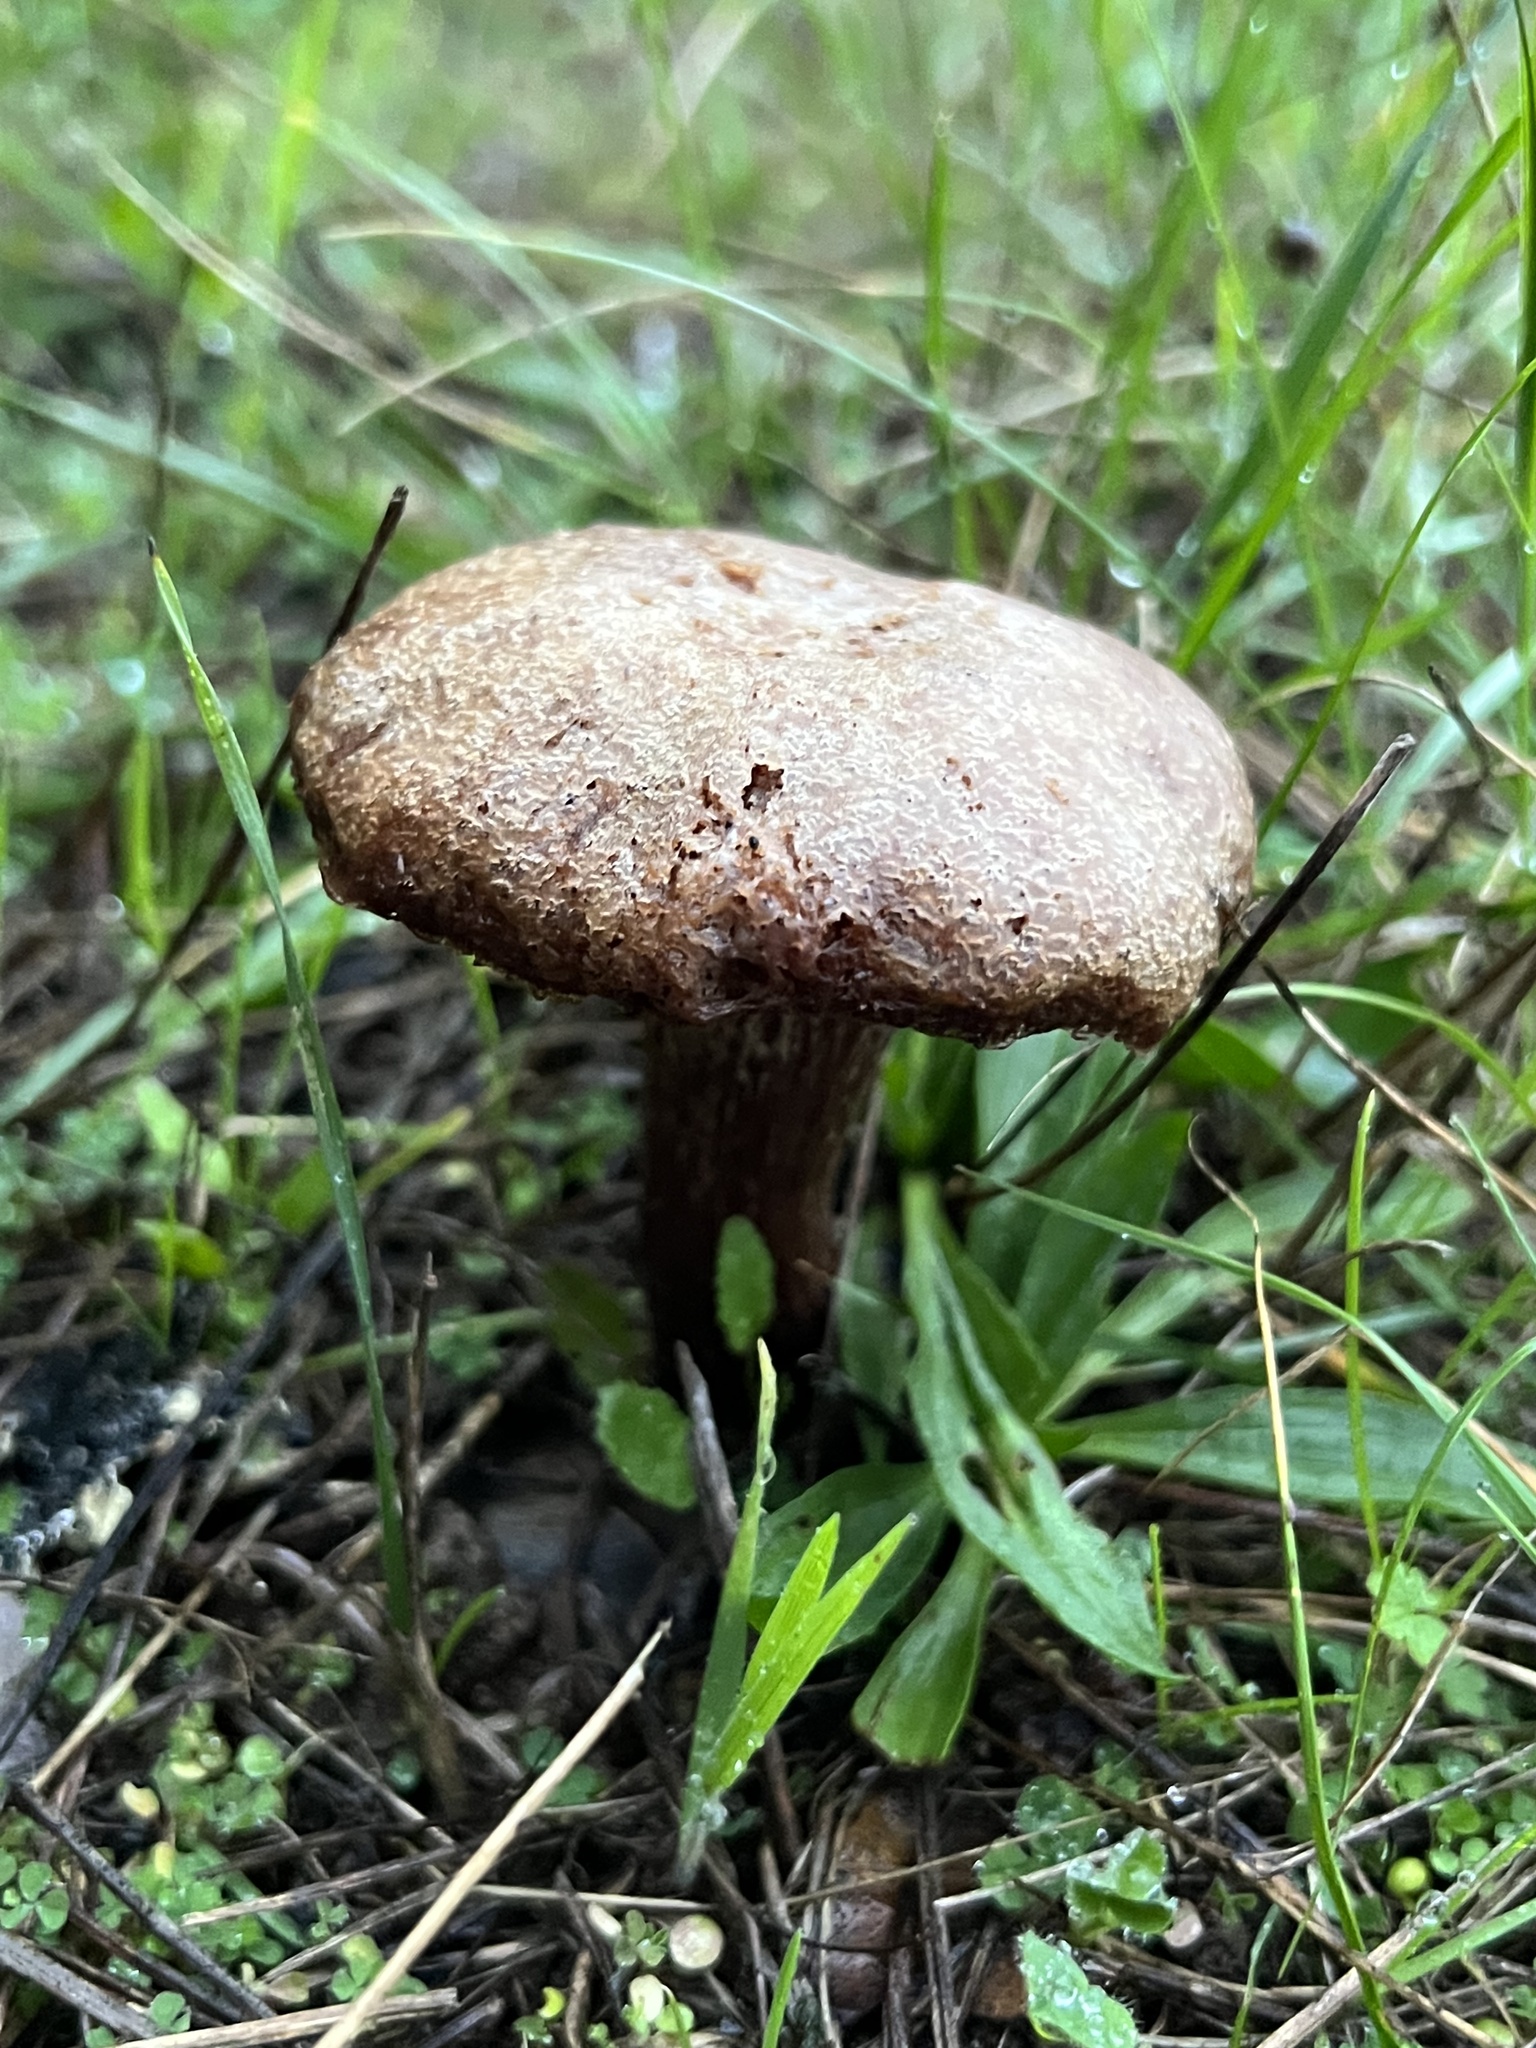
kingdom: Fungi
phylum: Basidiomycota
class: Agaricomycetes
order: Agaricales
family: Hydnangiaceae
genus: Laccaria
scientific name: Laccaria amethysteo-occidentalis
